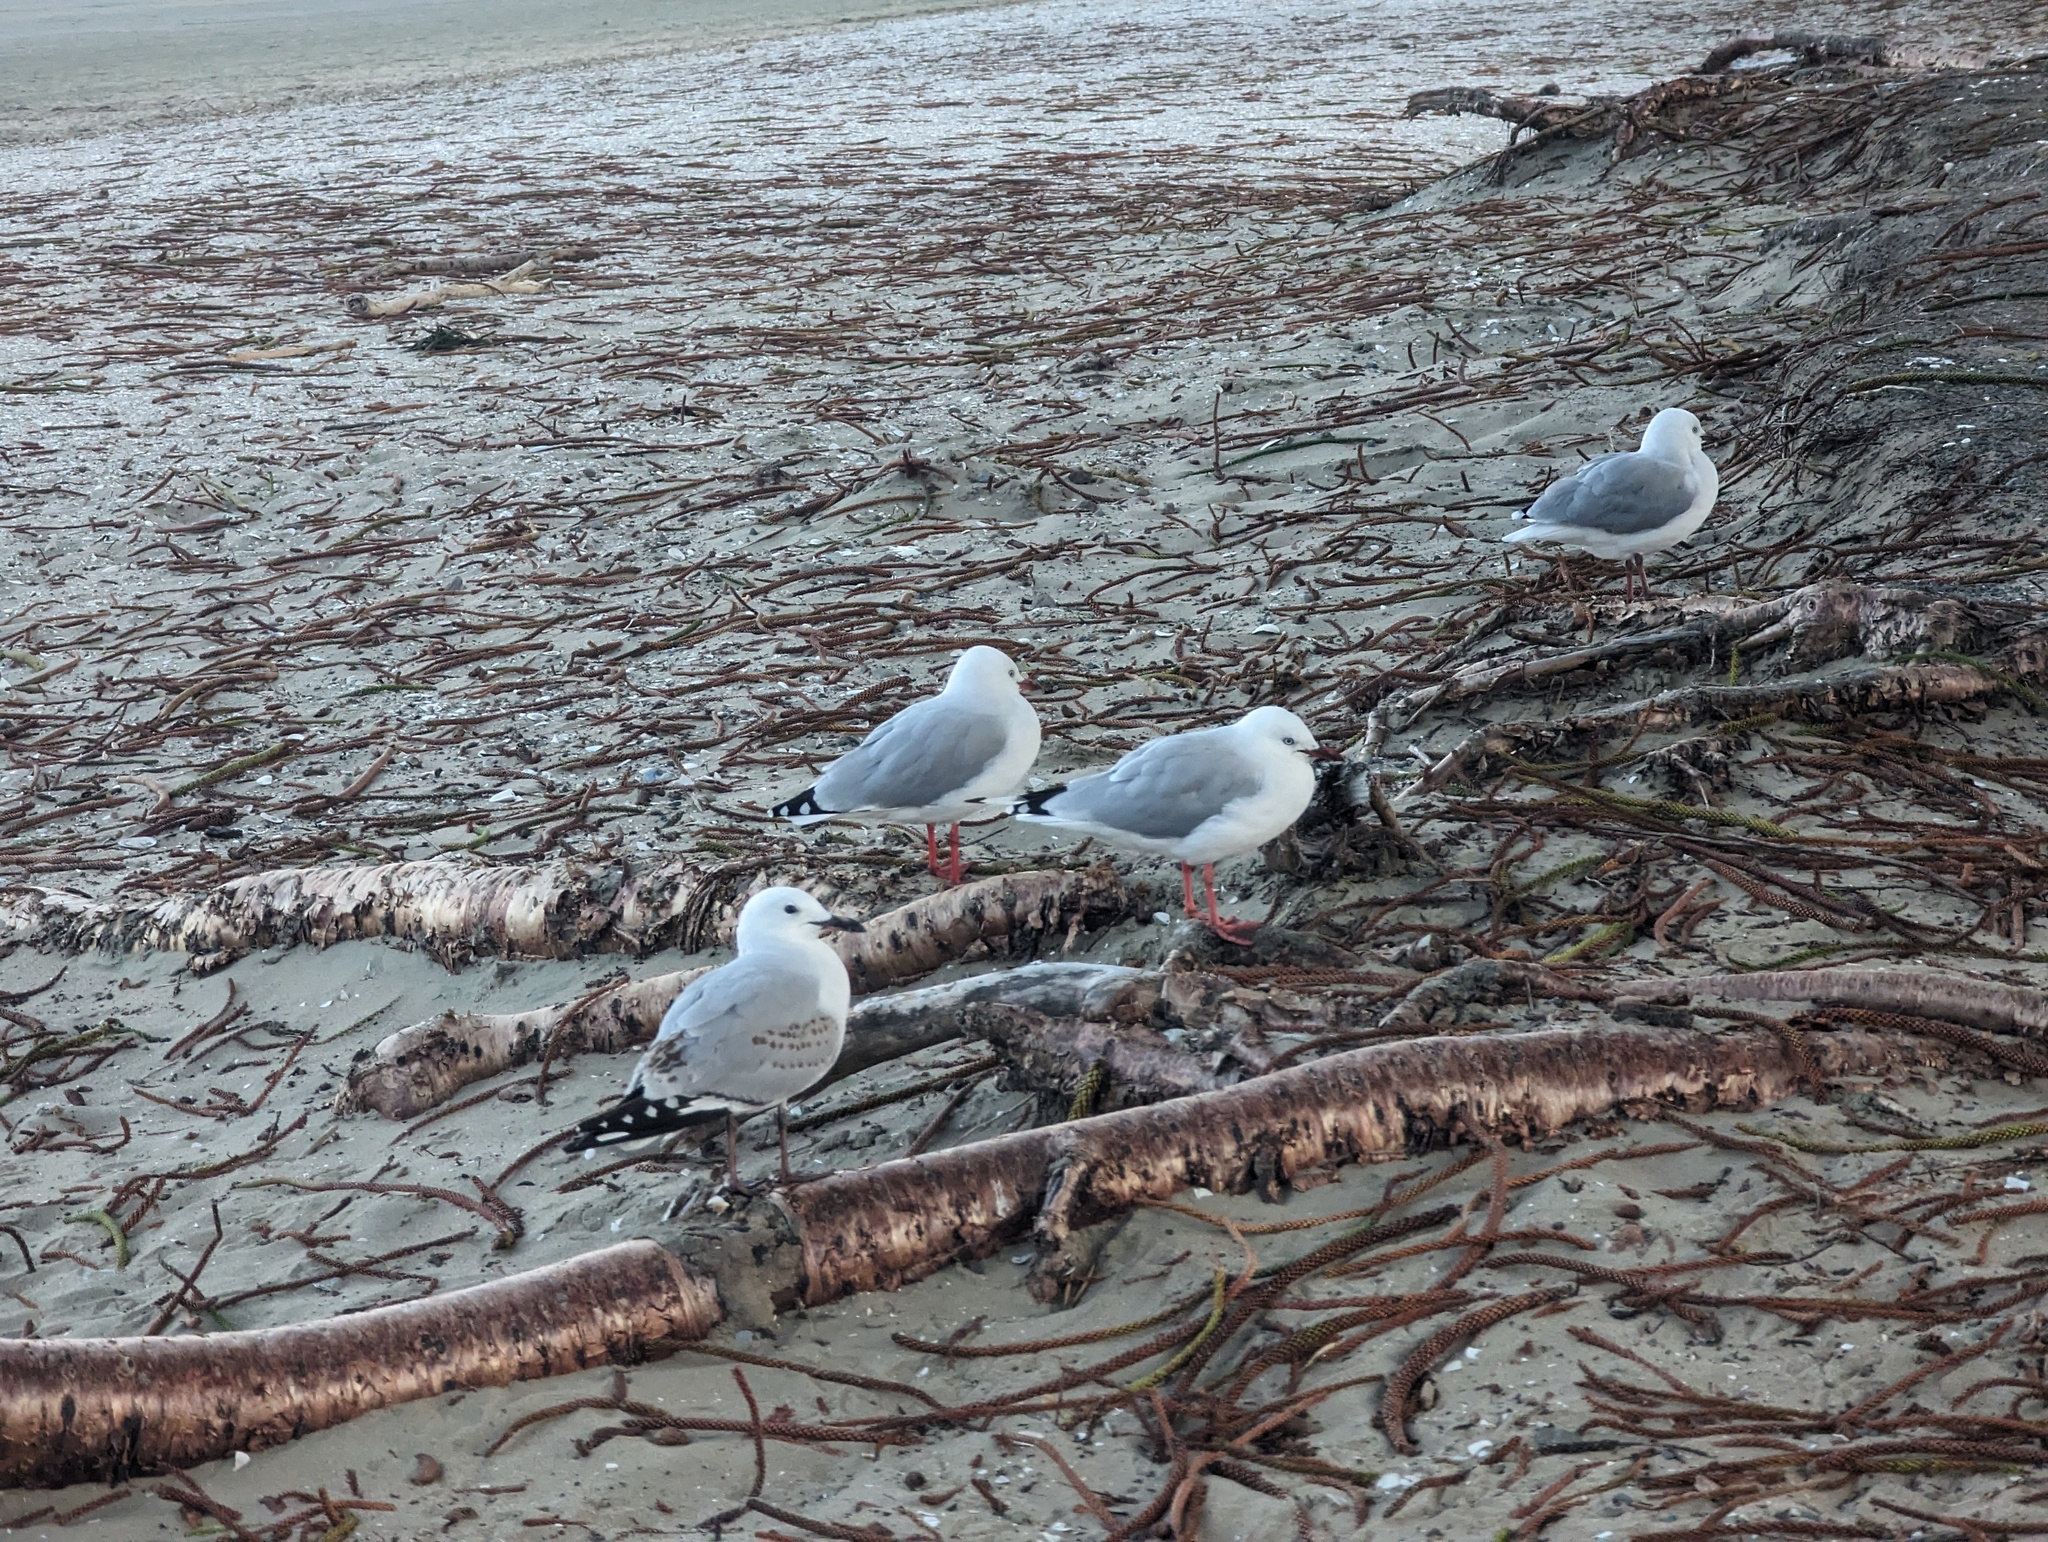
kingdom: Animalia
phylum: Chordata
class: Aves
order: Charadriiformes
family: Laridae
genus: Chroicocephalus
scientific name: Chroicocephalus novaehollandiae
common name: Silver gull
